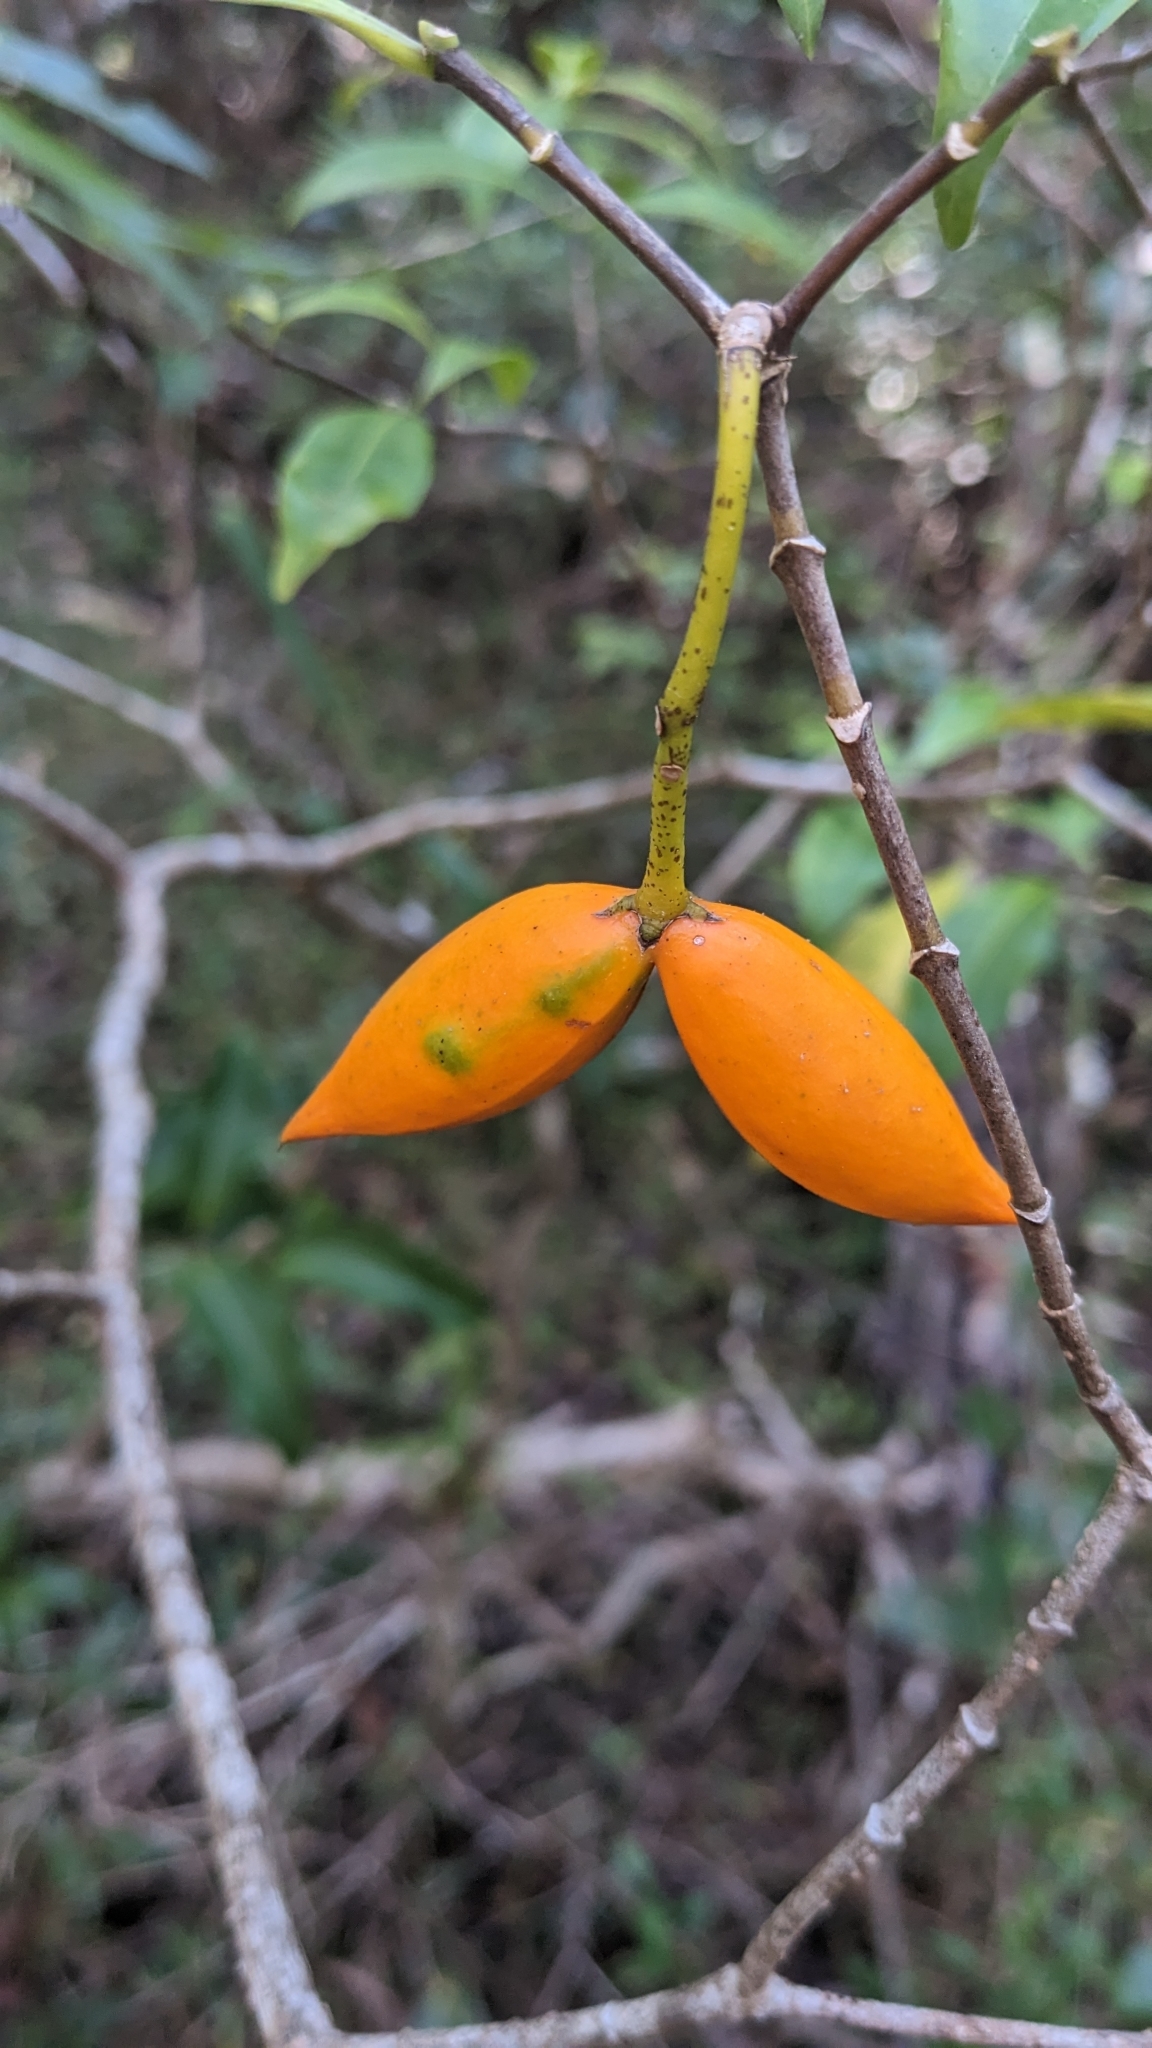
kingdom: Plantae
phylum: Tracheophyta
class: Magnoliopsida
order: Gentianales
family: Apocynaceae
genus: Tabernaemontana
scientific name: Tabernaemontana pandacaqui
